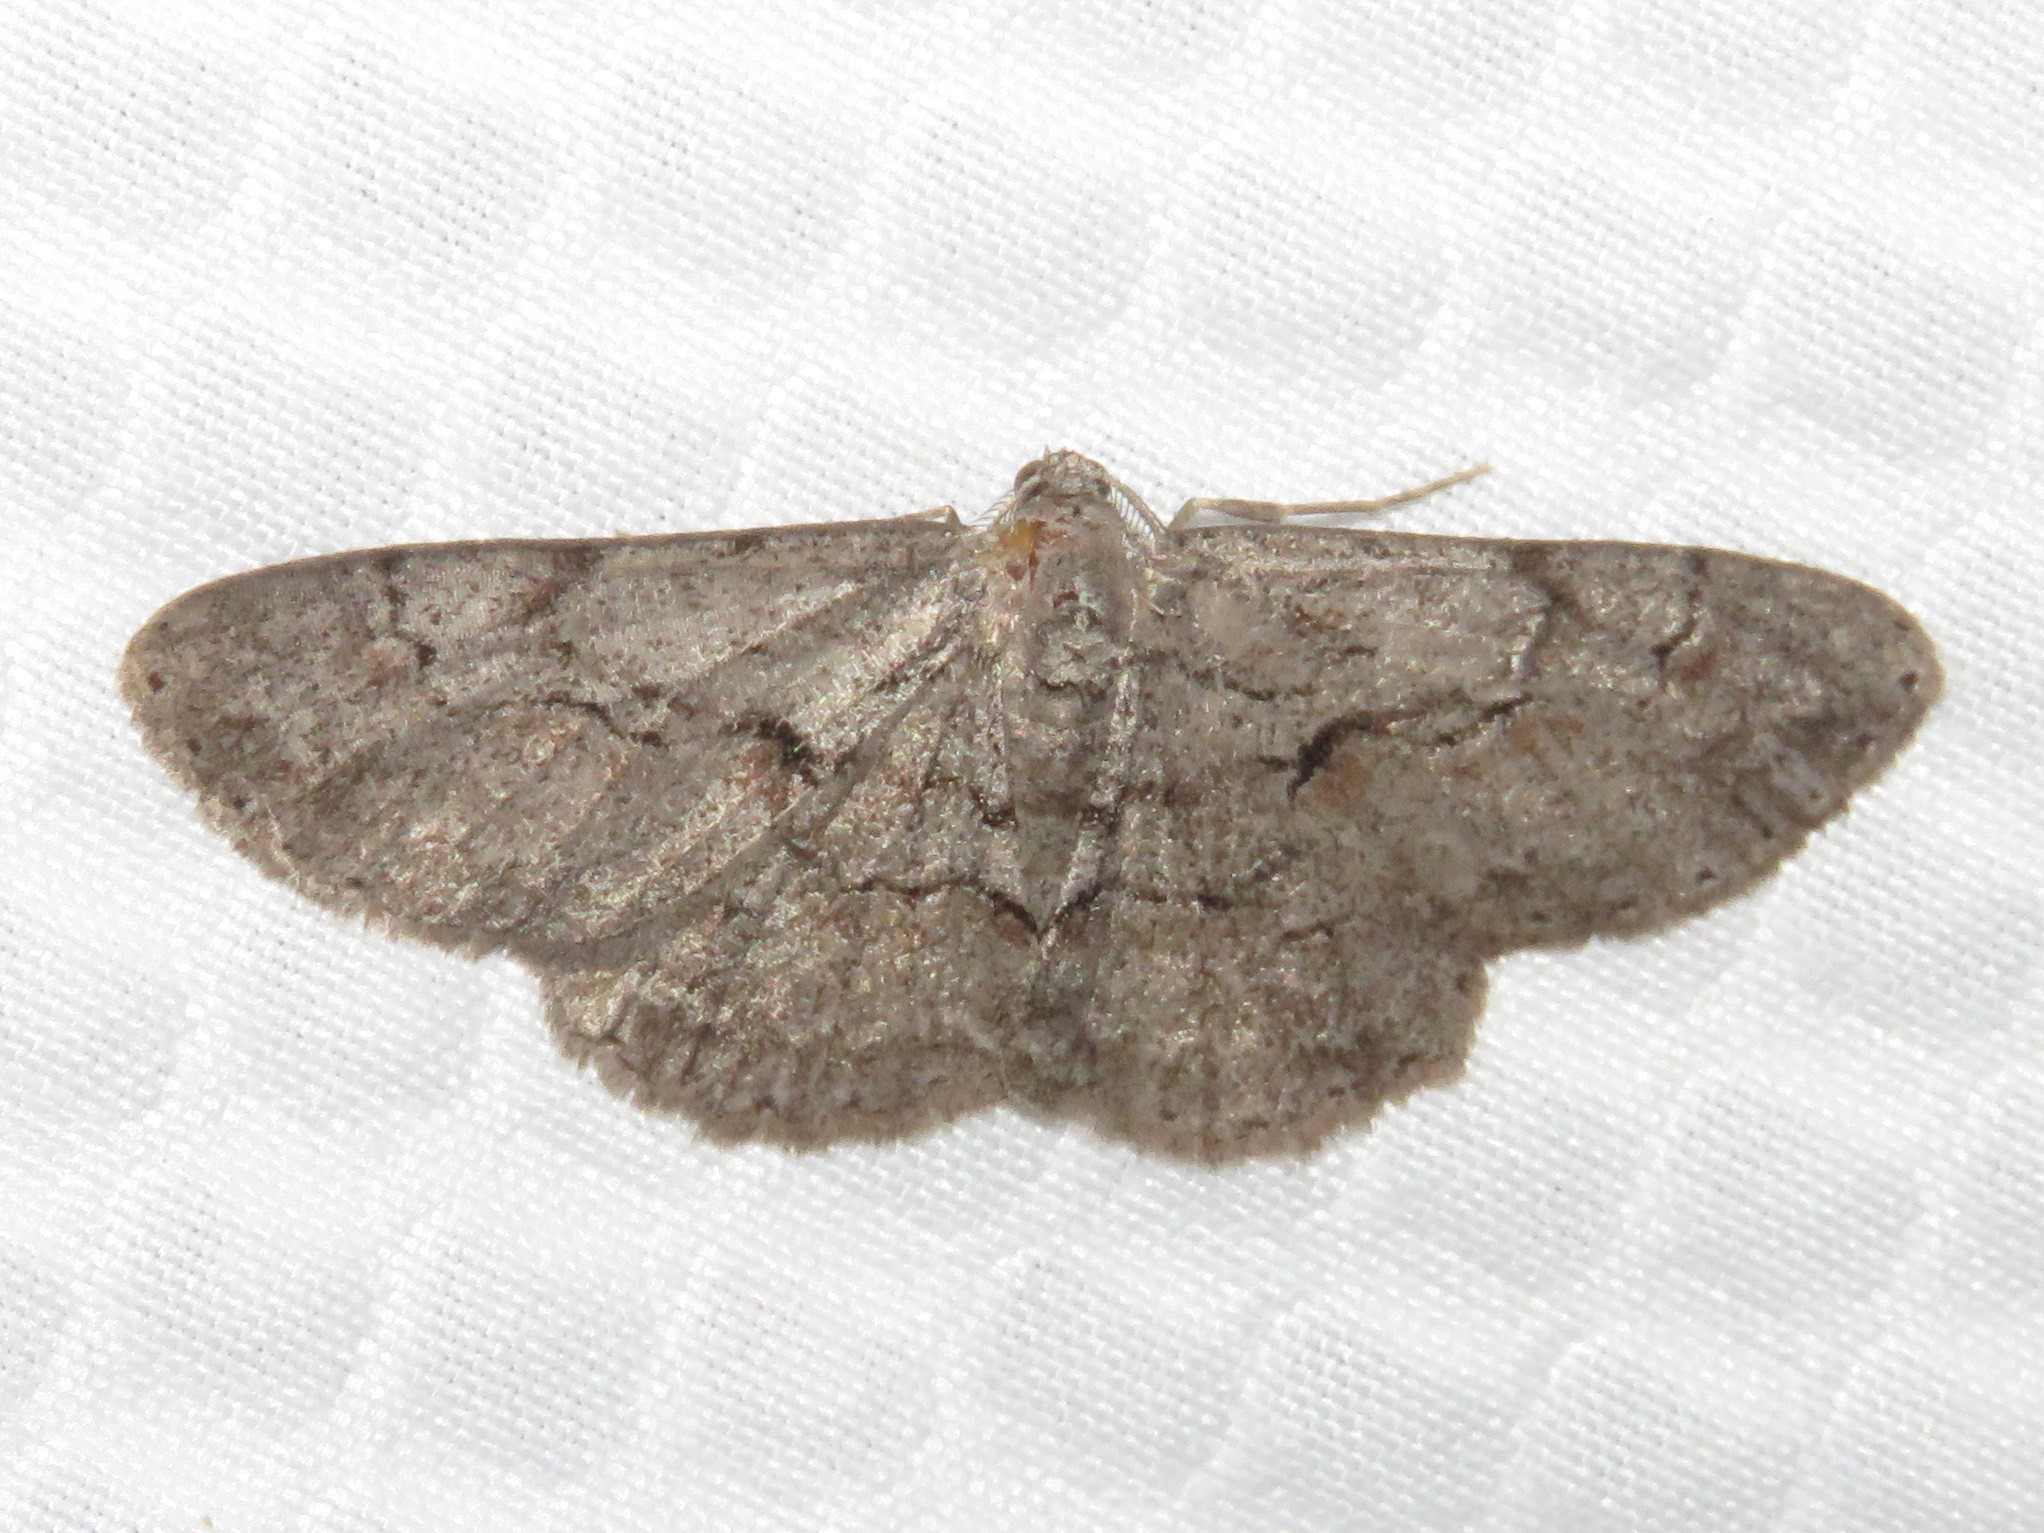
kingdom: Animalia
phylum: Arthropoda
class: Insecta
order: Lepidoptera
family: Geometridae
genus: Iridopsis
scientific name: Iridopsis vellivolata
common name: Large purplish gray
